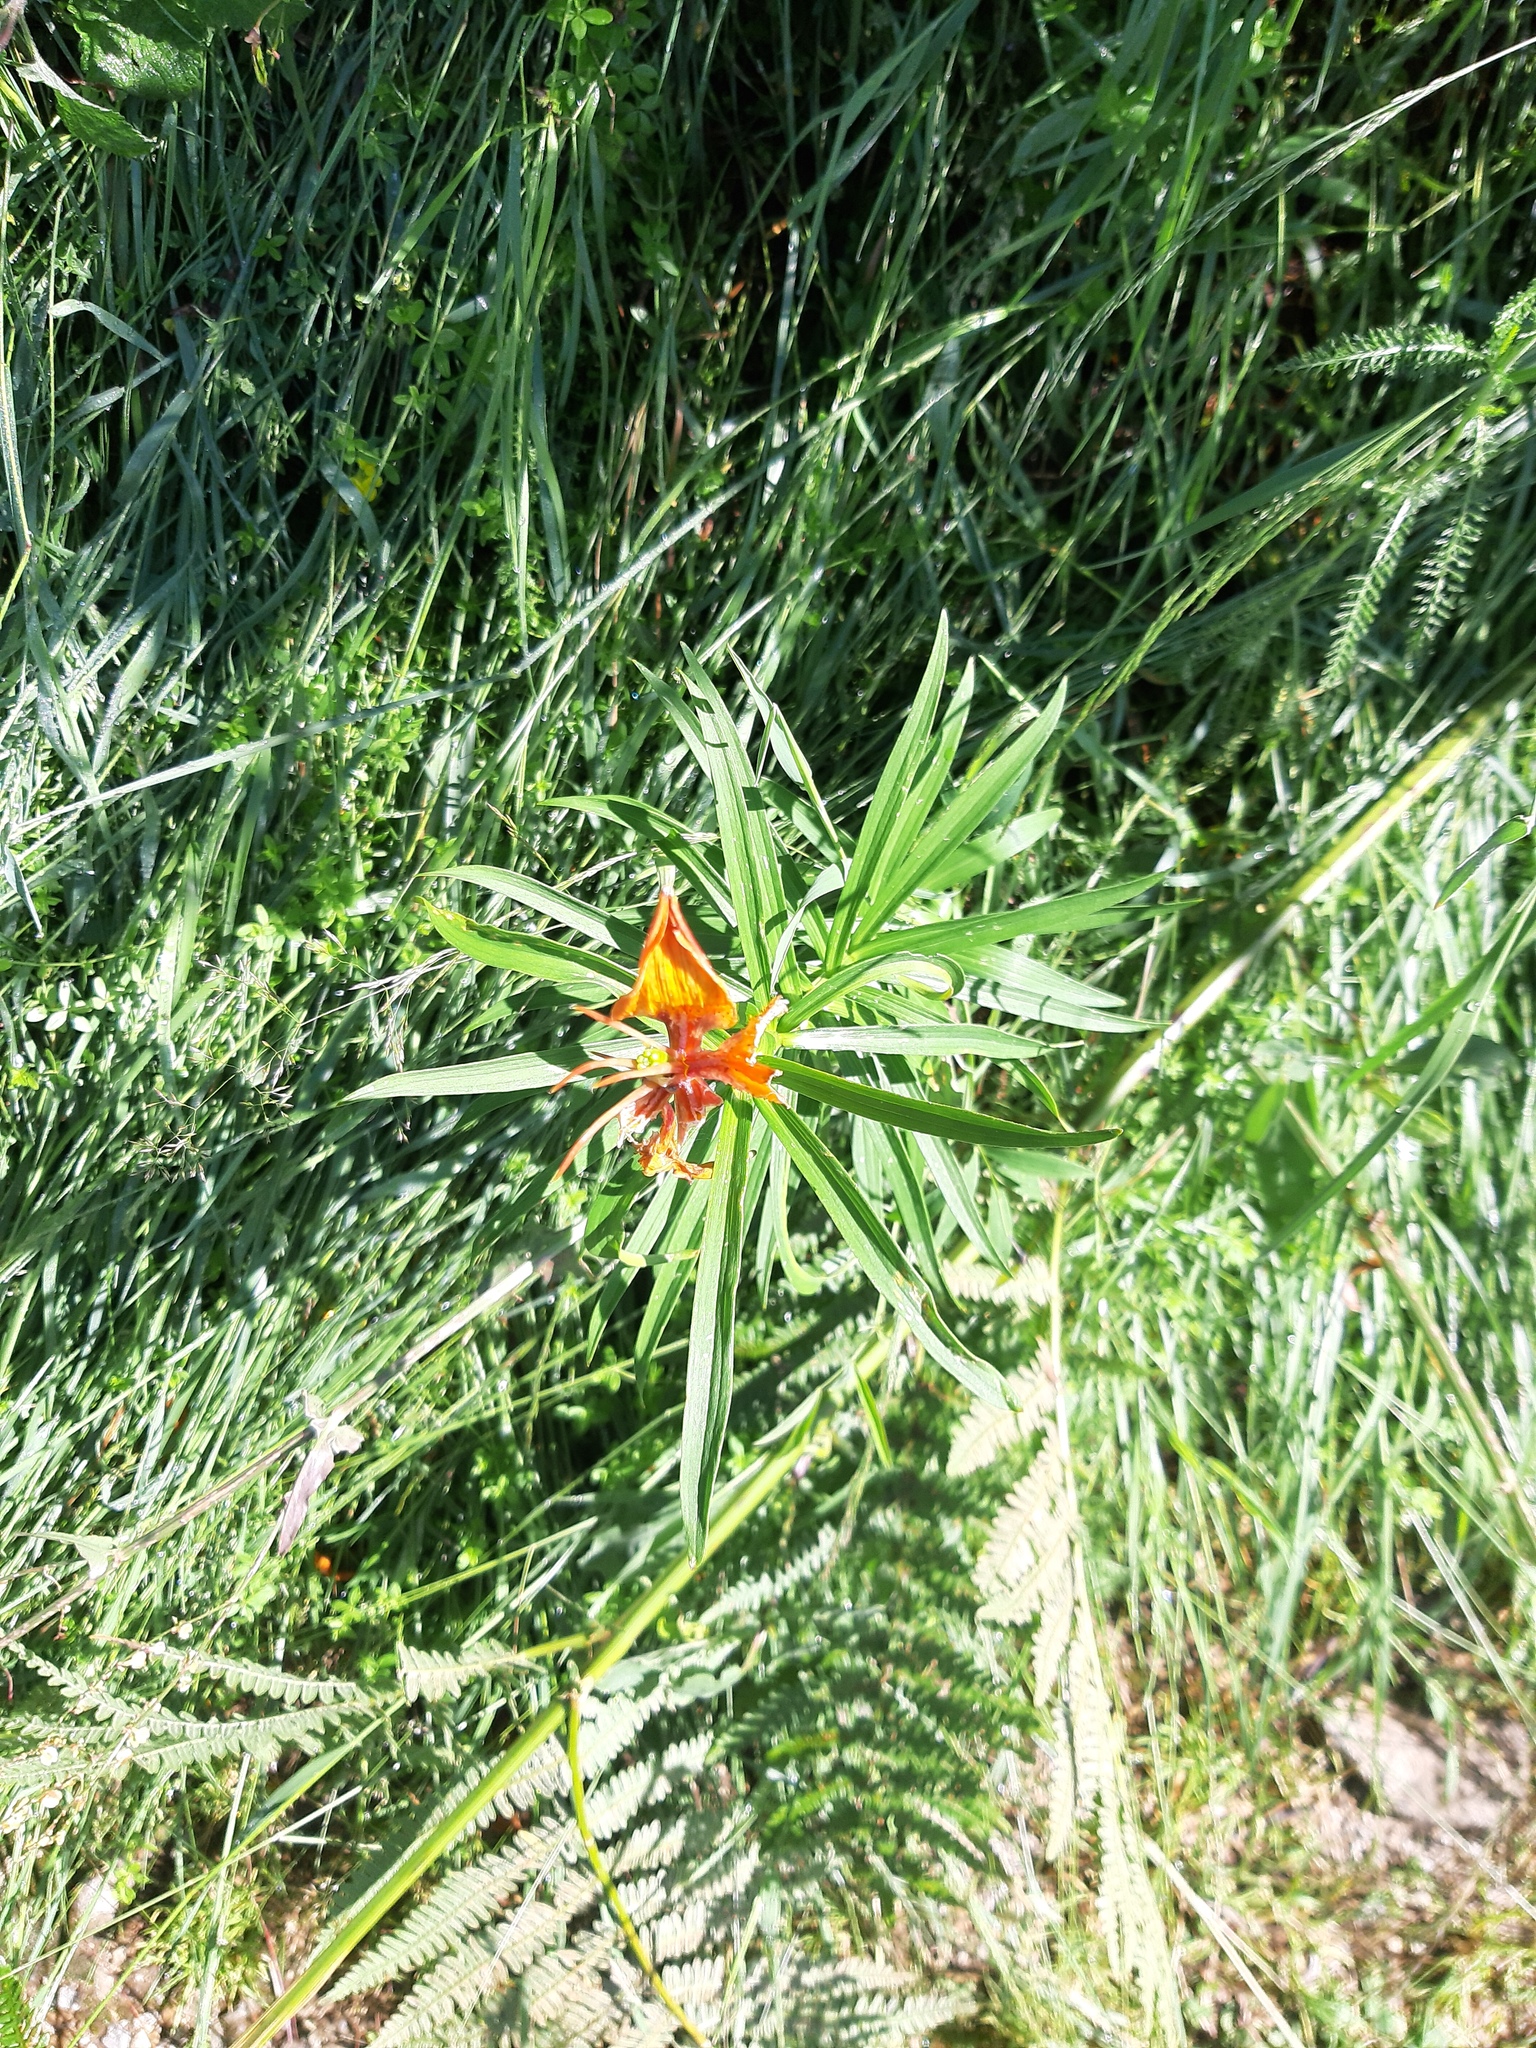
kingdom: Plantae
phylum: Tracheophyta
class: Liliopsida
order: Liliales
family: Liliaceae
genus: Lilium
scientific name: Lilium bulbiferum
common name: Orange lily
